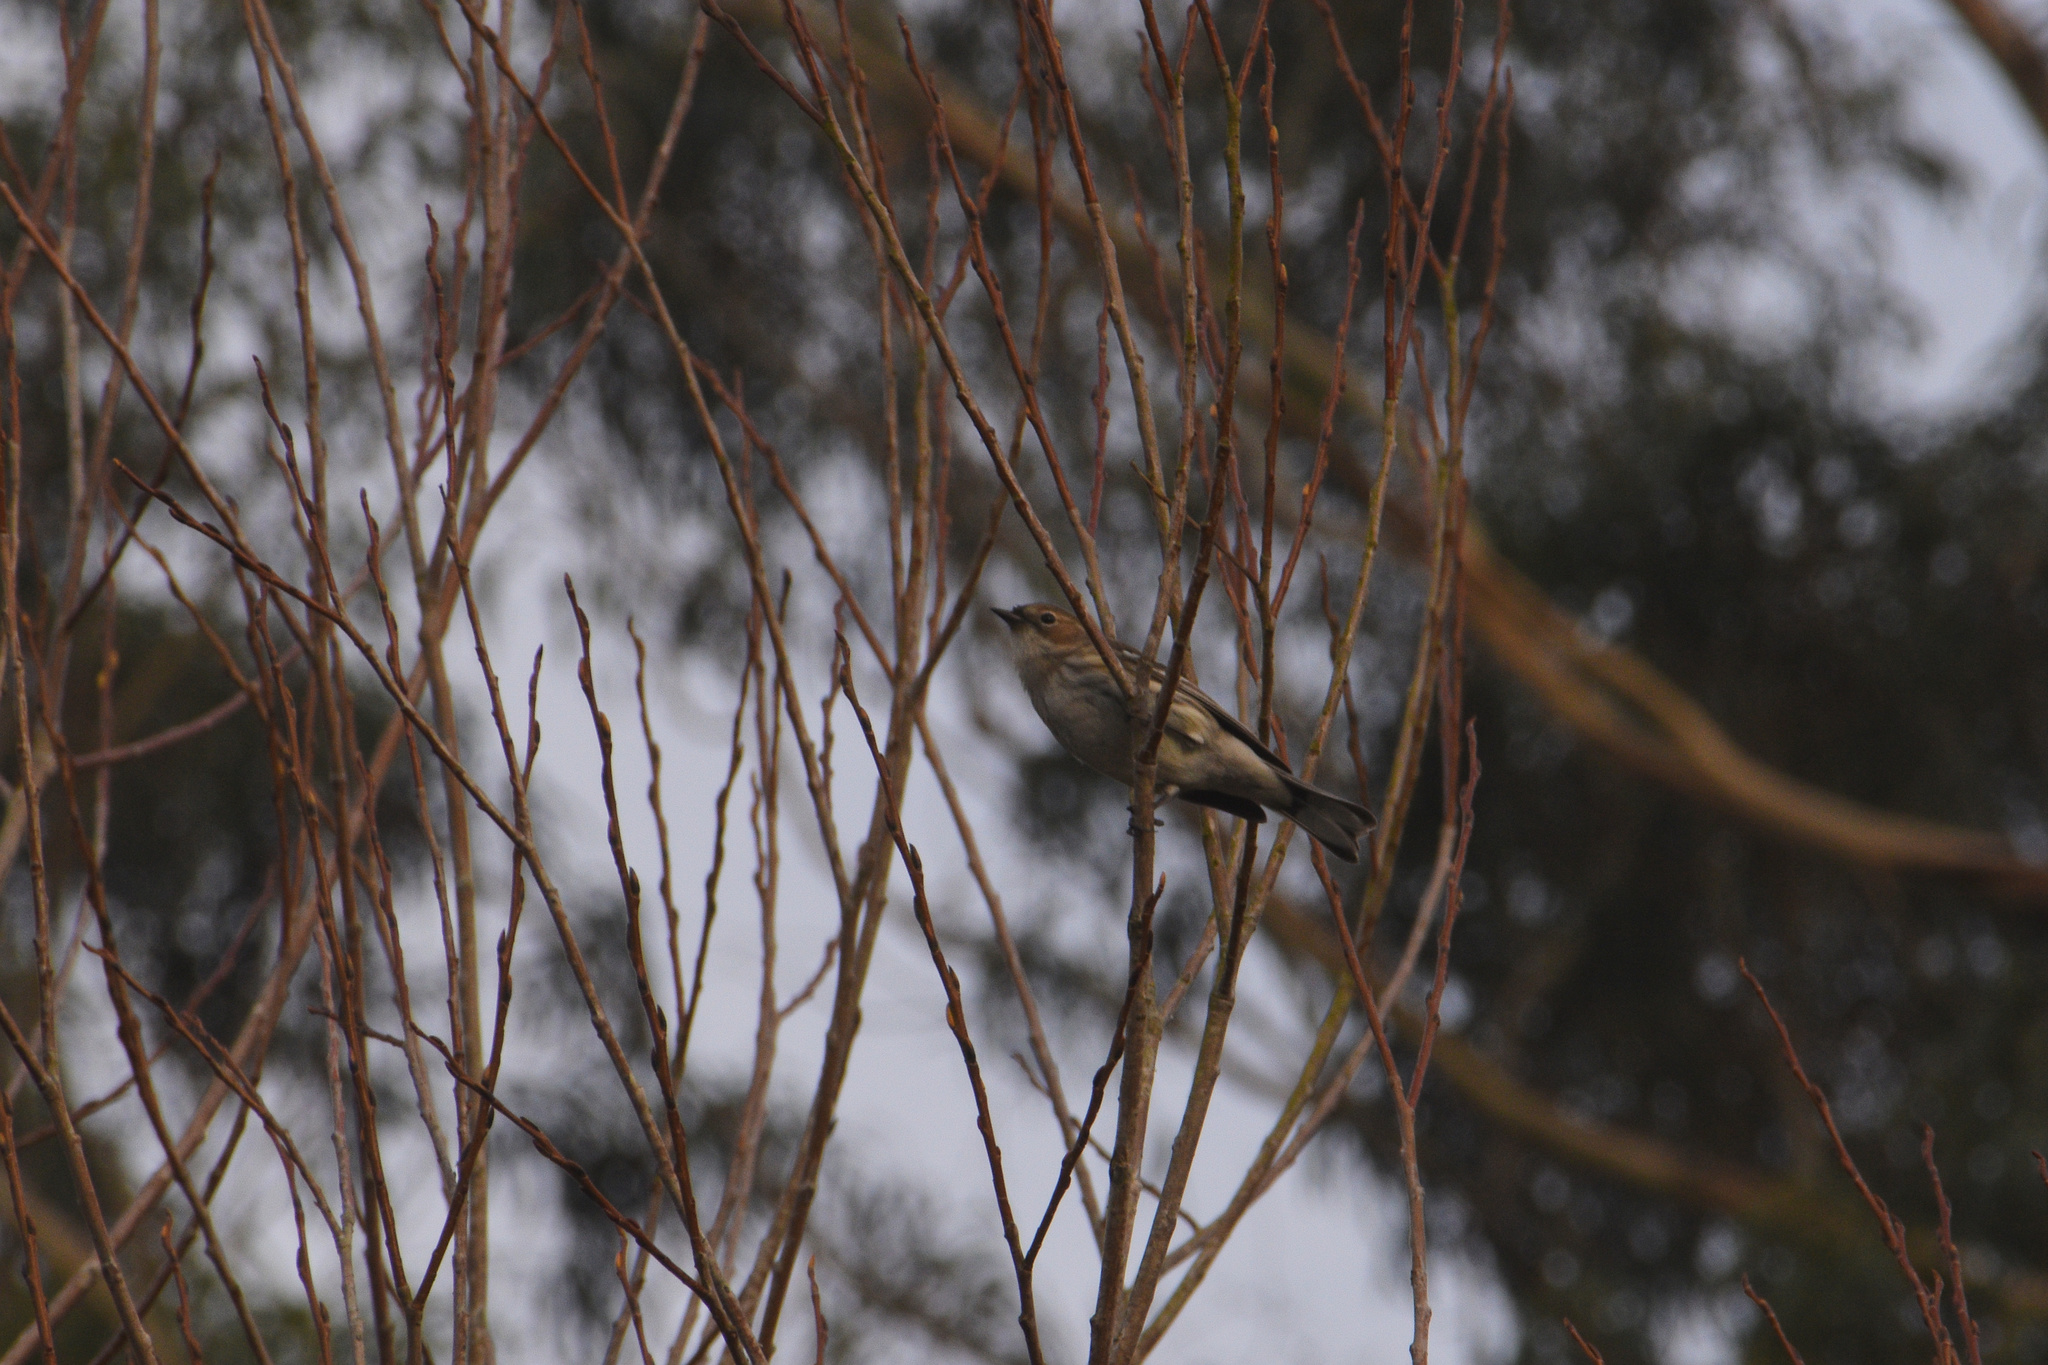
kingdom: Animalia
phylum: Chordata
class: Aves
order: Passeriformes
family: Parulidae
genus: Setophaga
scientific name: Setophaga coronata
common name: Myrtle warbler
